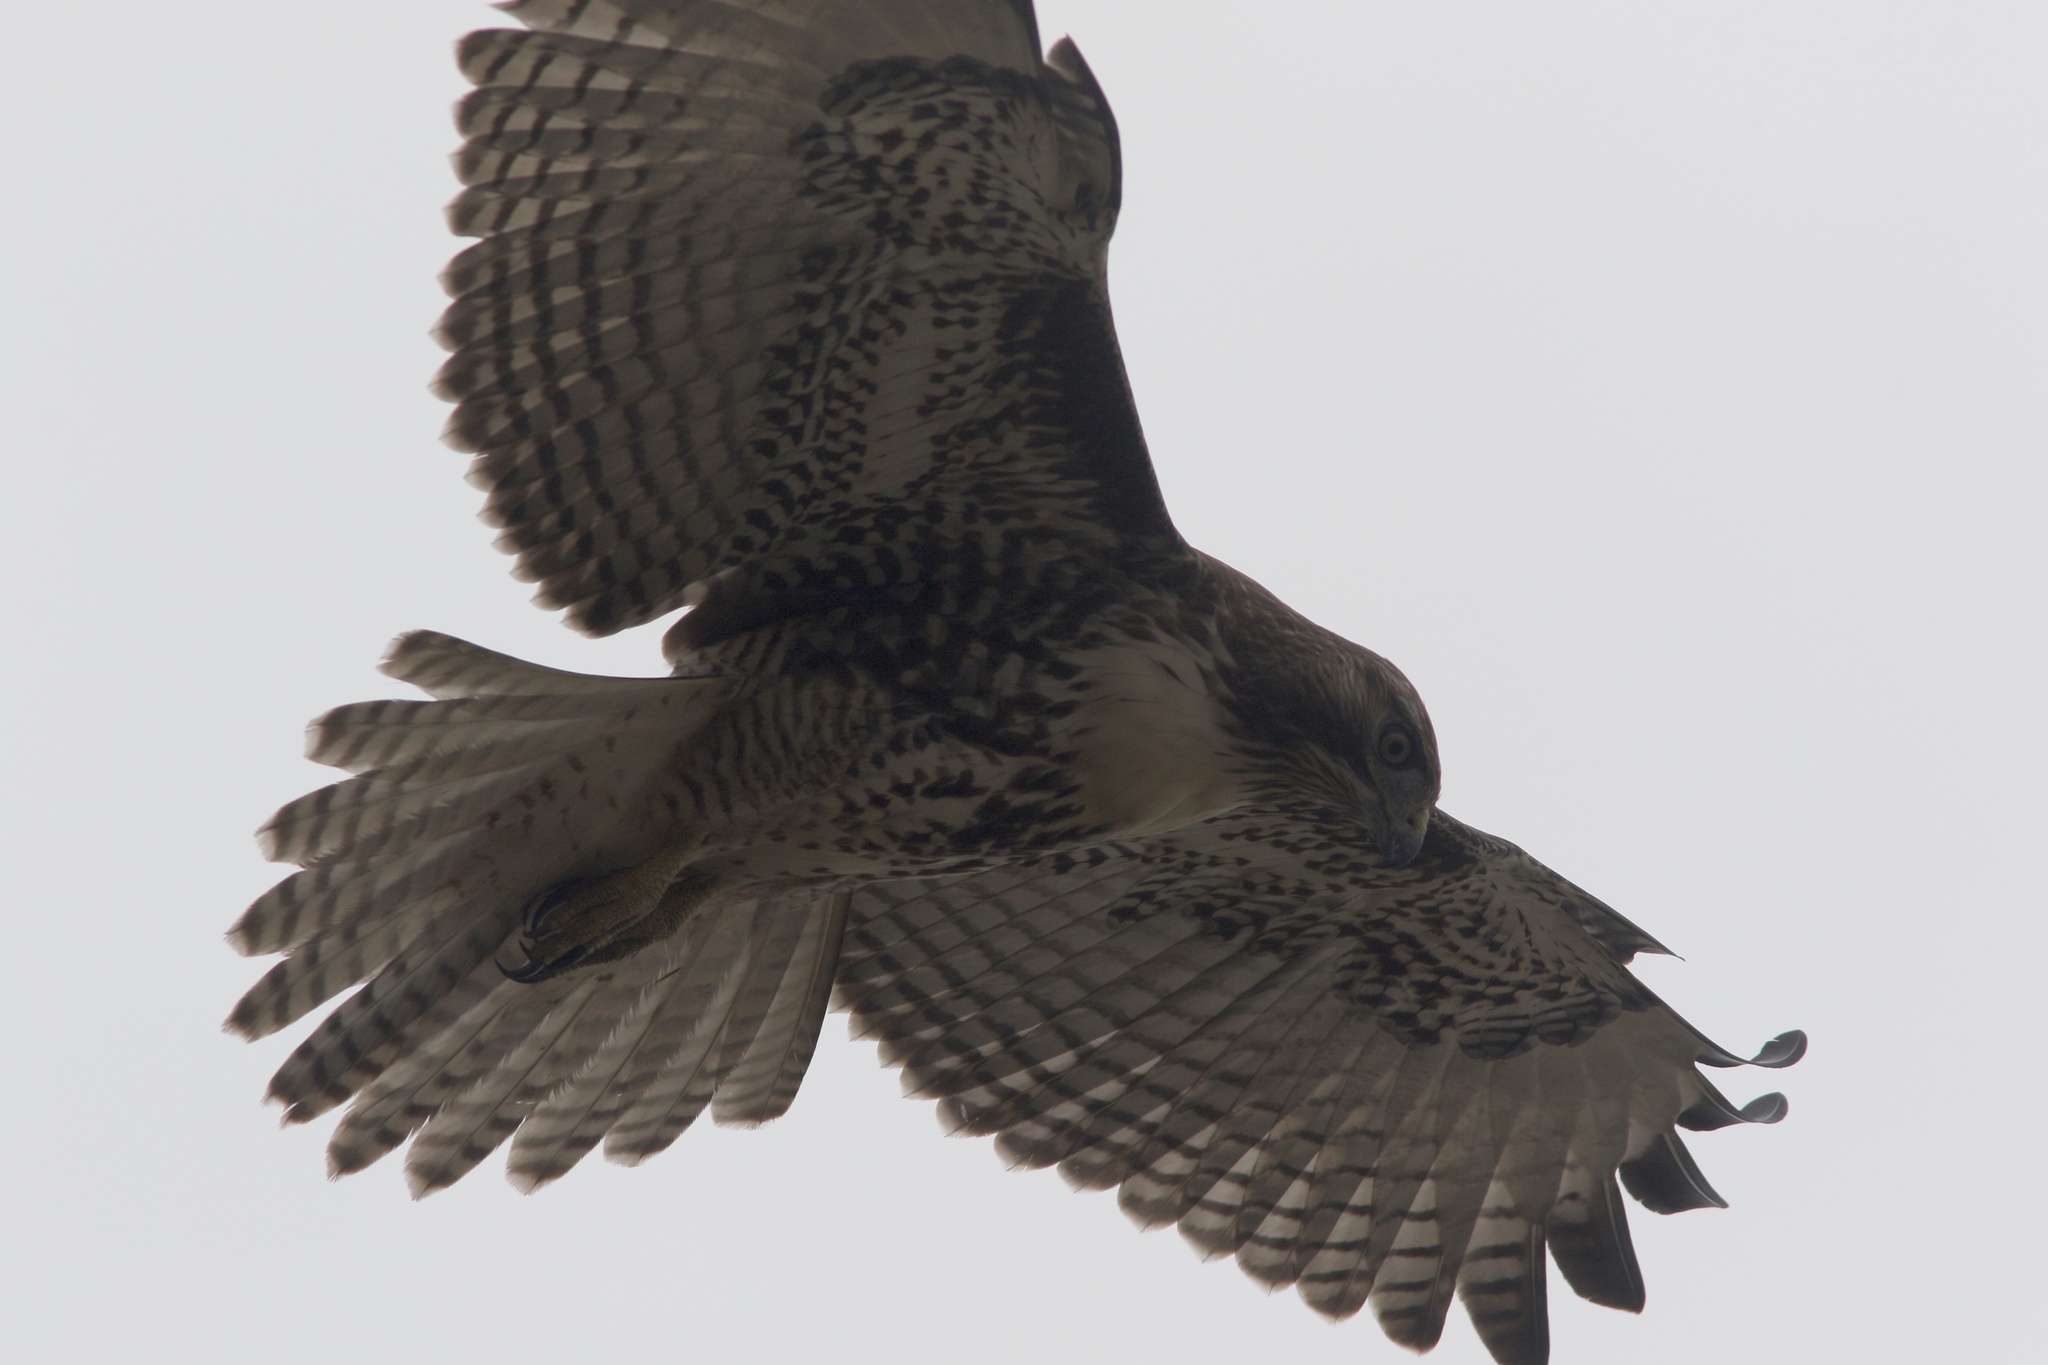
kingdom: Animalia
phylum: Chordata
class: Aves
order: Accipitriformes
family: Accipitridae
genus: Buteo
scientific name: Buteo jamaicensis
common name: Red-tailed hawk
